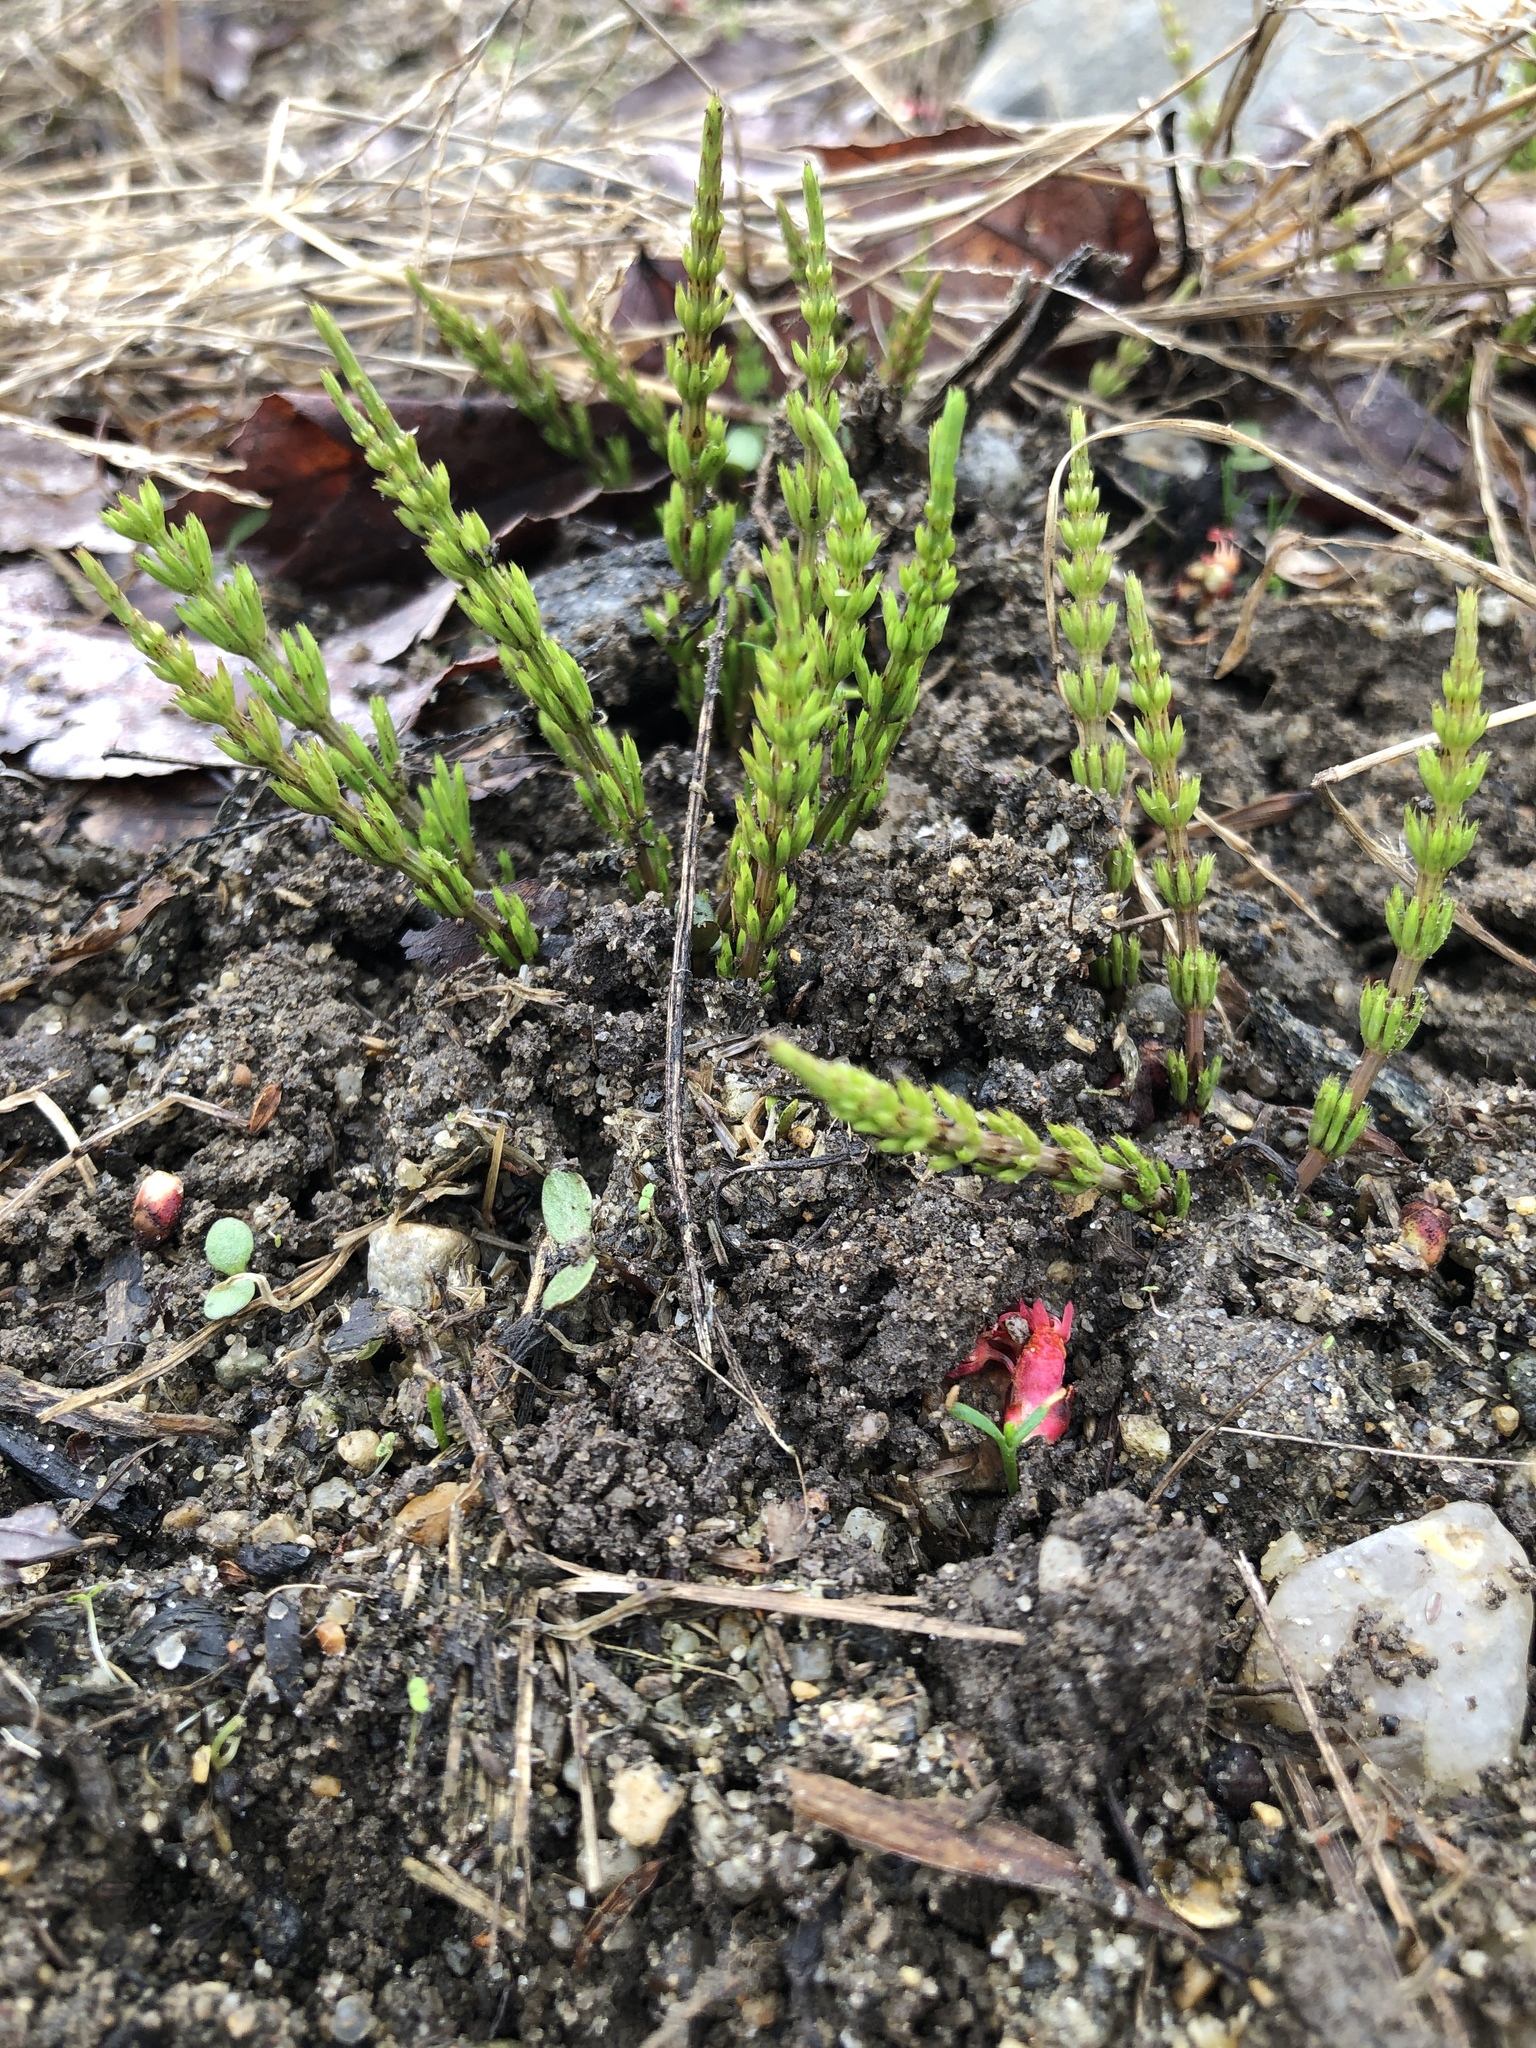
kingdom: Plantae
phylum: Tracheophyta
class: Polypodiopsida
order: Equisetales
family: Equisetaceae
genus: Equisetum
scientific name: Equisetum arvense
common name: Field horsetail
